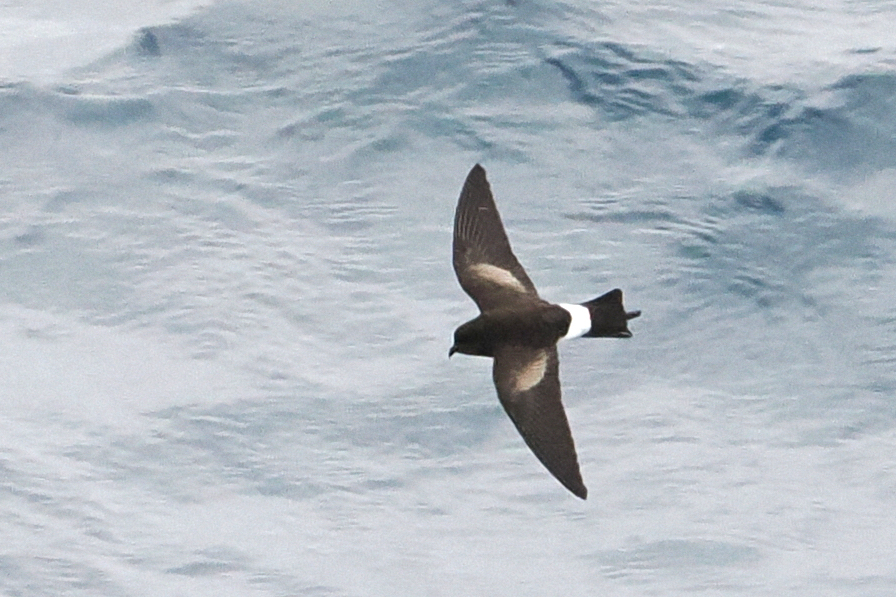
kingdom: Animalia
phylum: Chordata
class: Aves
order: Procellariiformes
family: Hydrobatidae
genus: Oceanites
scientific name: Oceanites oceanicus
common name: Wilson's storm petrel
